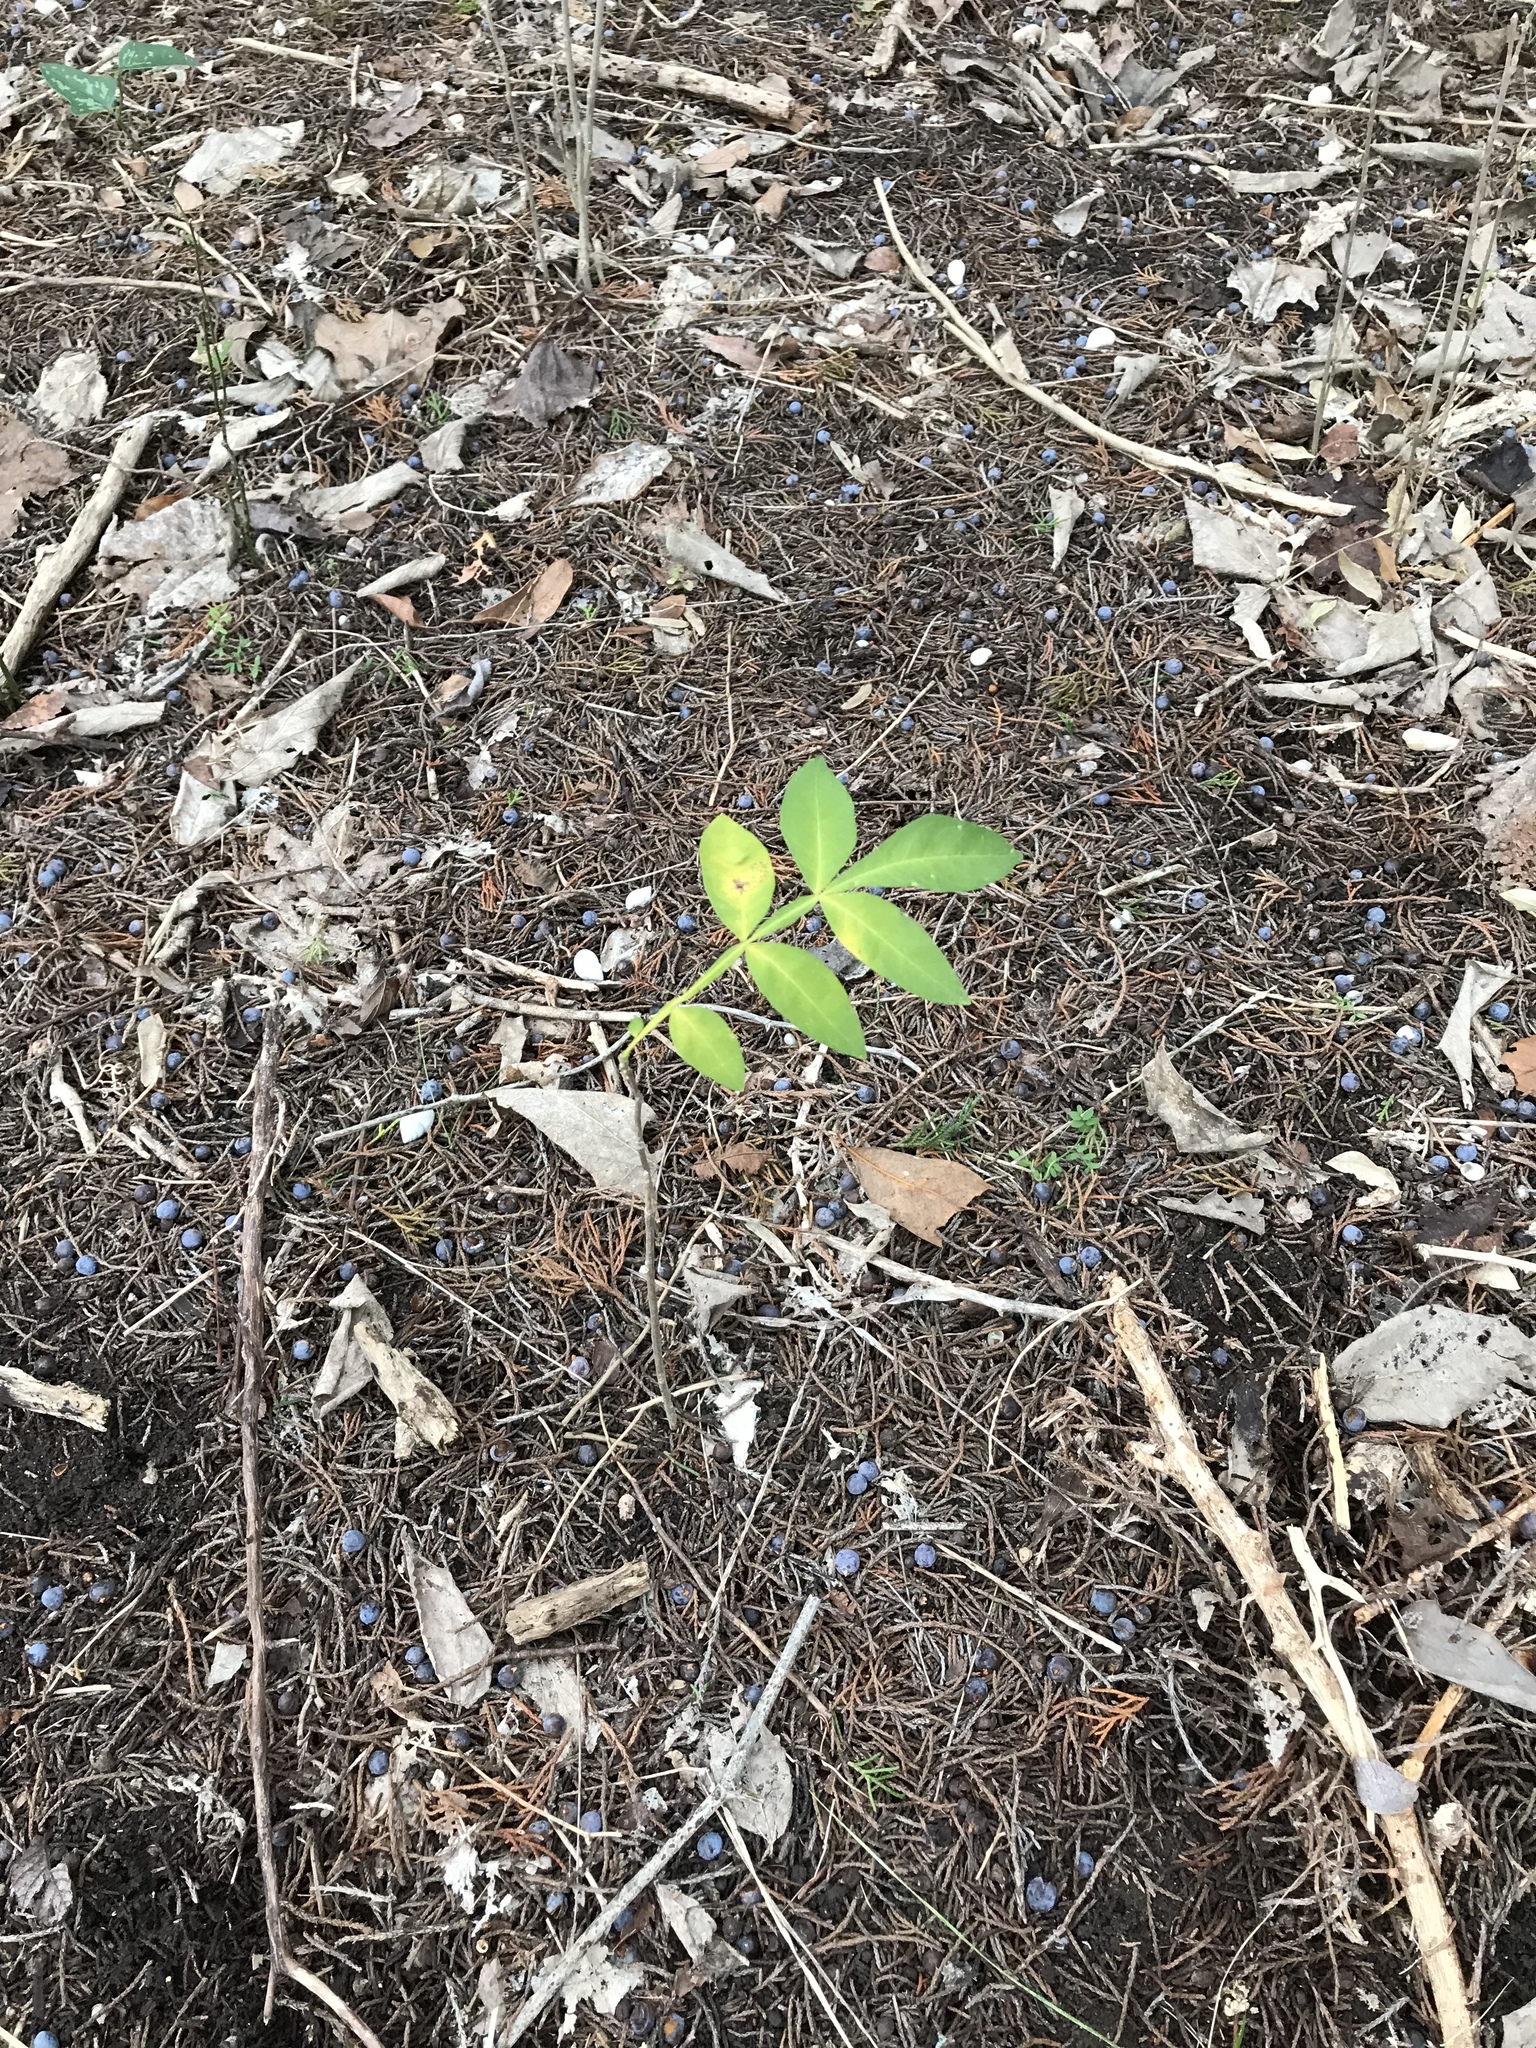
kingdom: Plantae
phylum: Tracheophyta
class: Magnoliopsida
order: Sapindales
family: Sapindaceae
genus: Sapindus
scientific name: Sapindus drummondii
